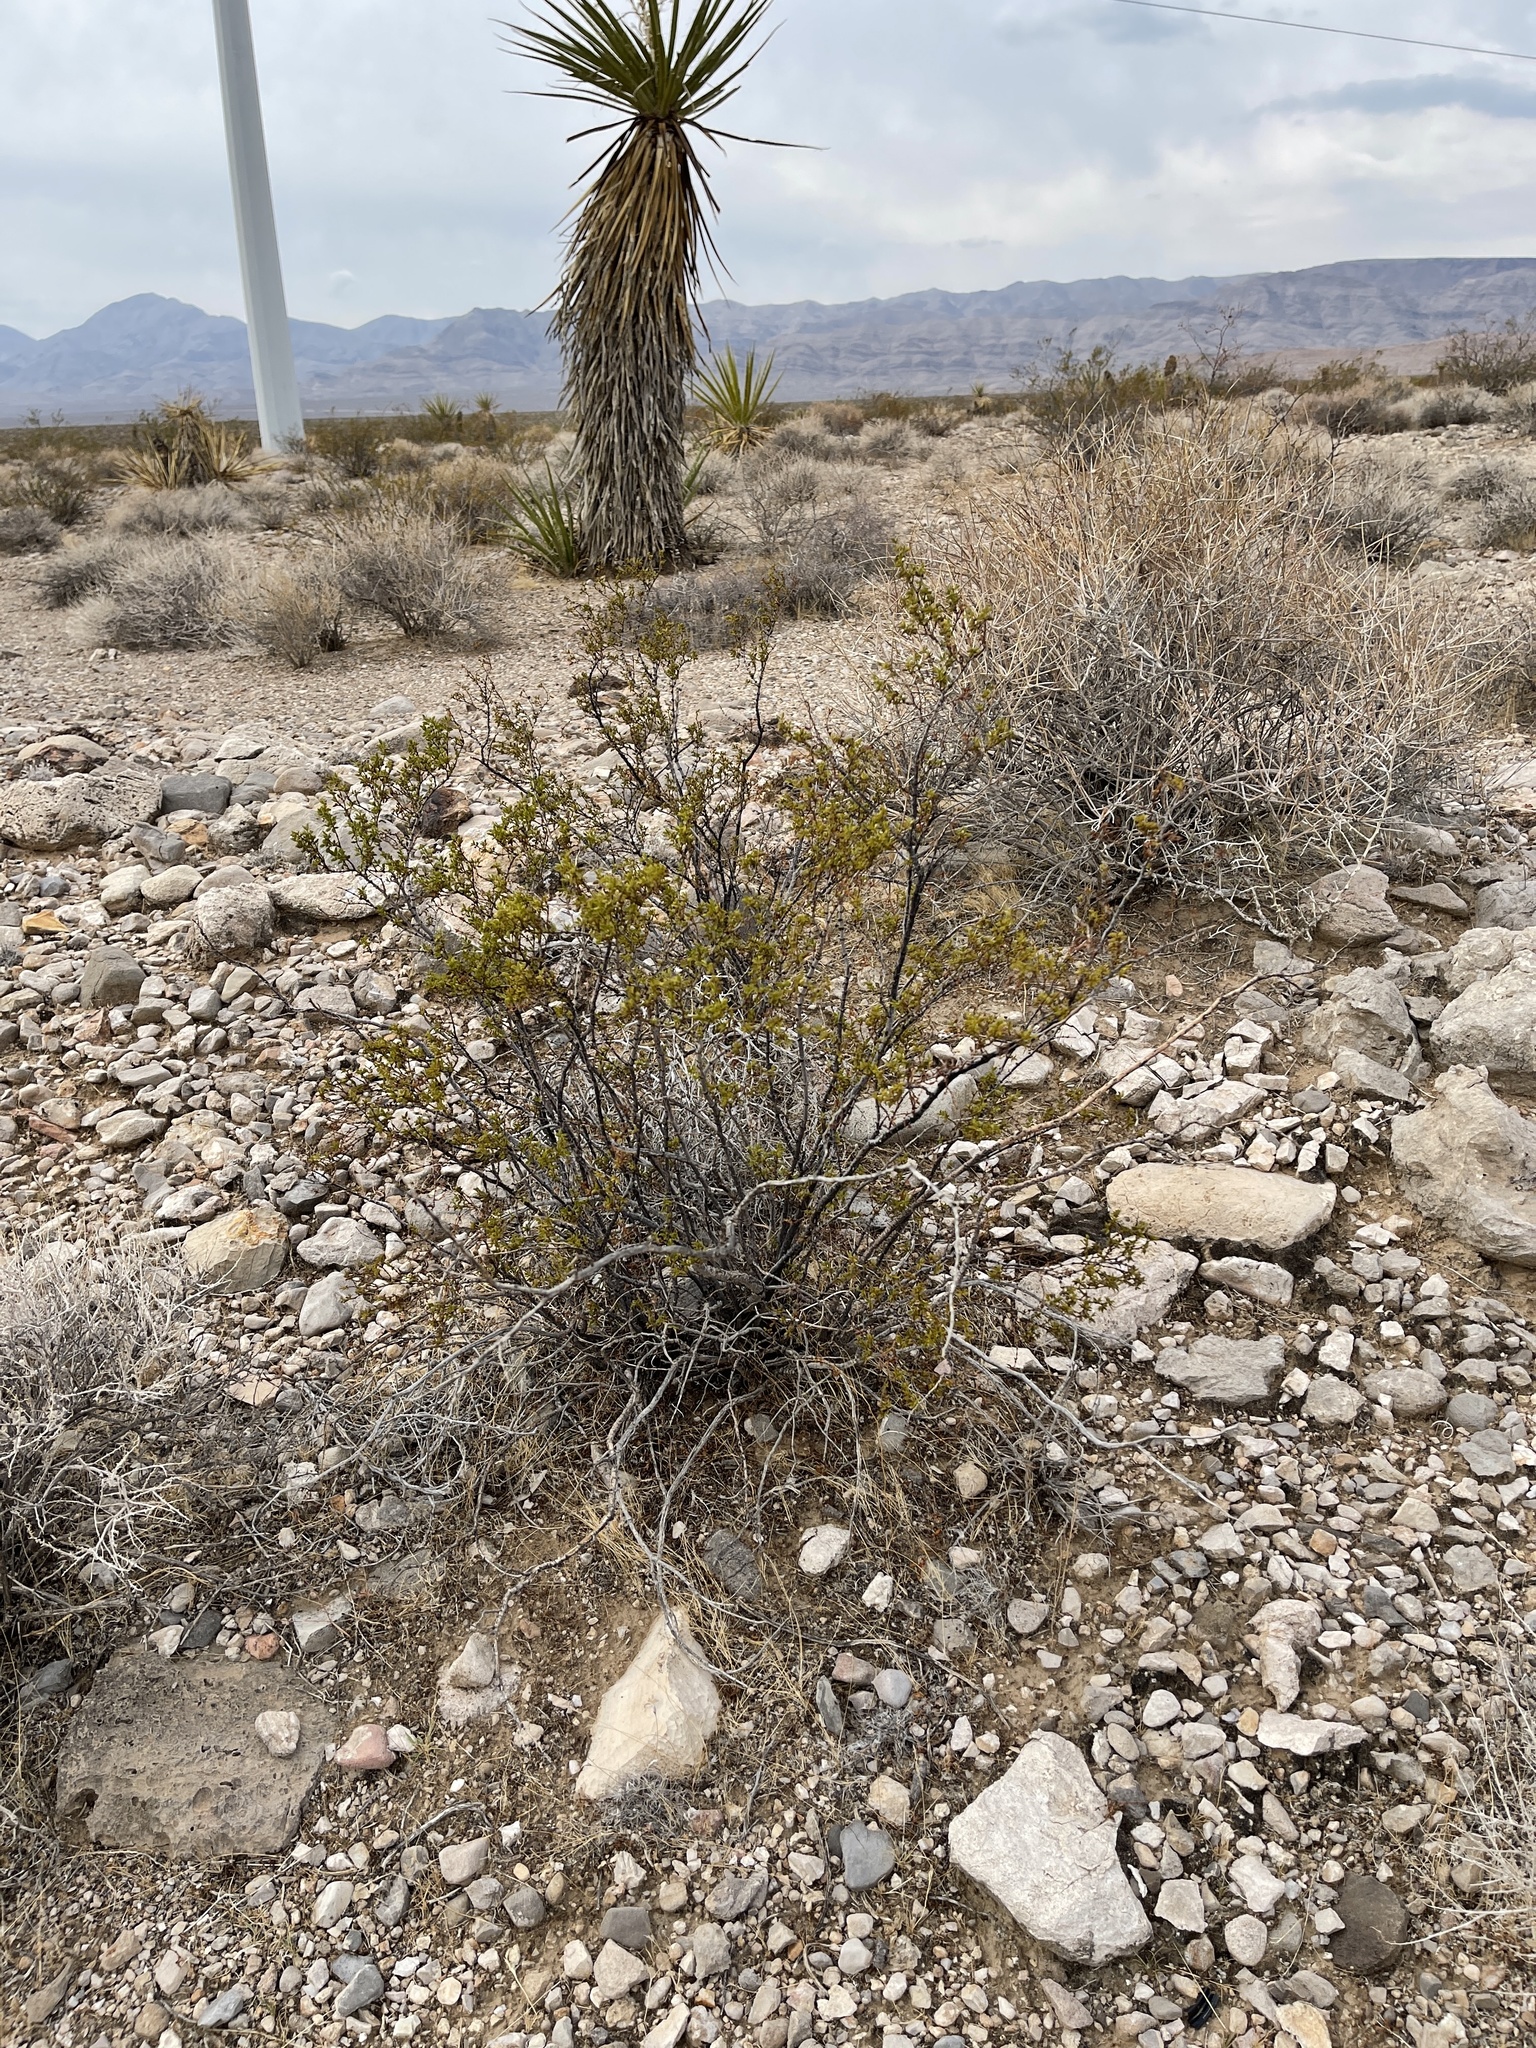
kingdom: Plantae
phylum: Tracheophyta
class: Magnoliopsida
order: Zygophyllales
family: Zygophyllaceae
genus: Larrea
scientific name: Larrea tridentata
